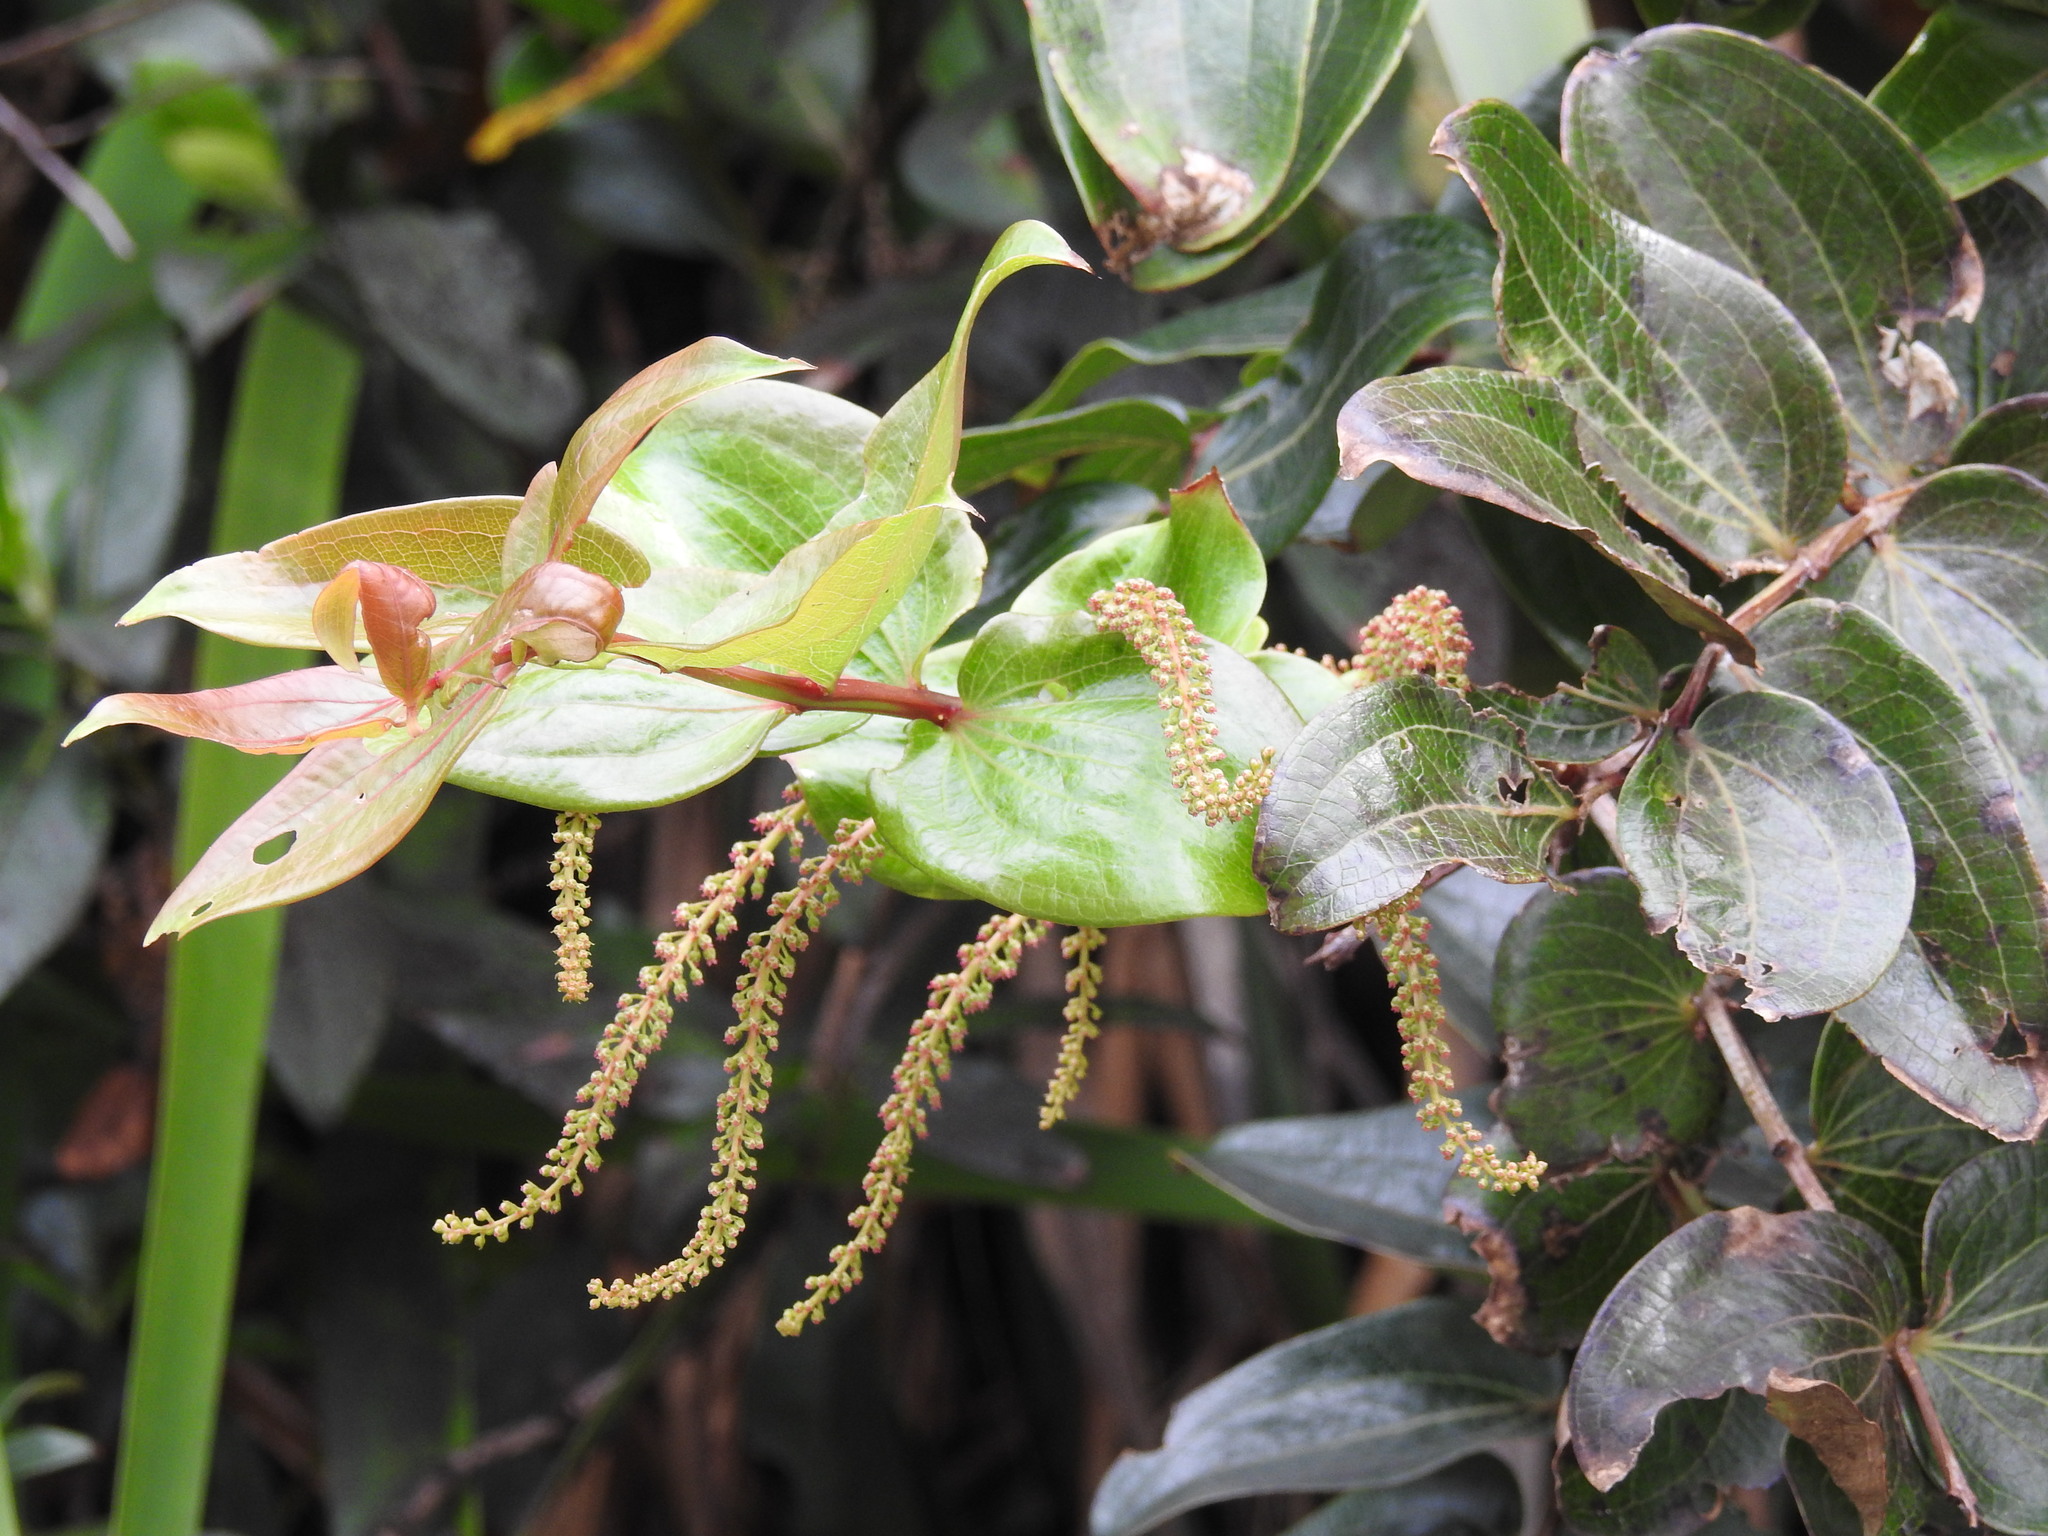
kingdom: Plantae
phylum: Tracheophyta
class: Magnoliopsida
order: Cucurbitales
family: Coriariaceae
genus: Coriaria
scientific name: Coriaria arborea
